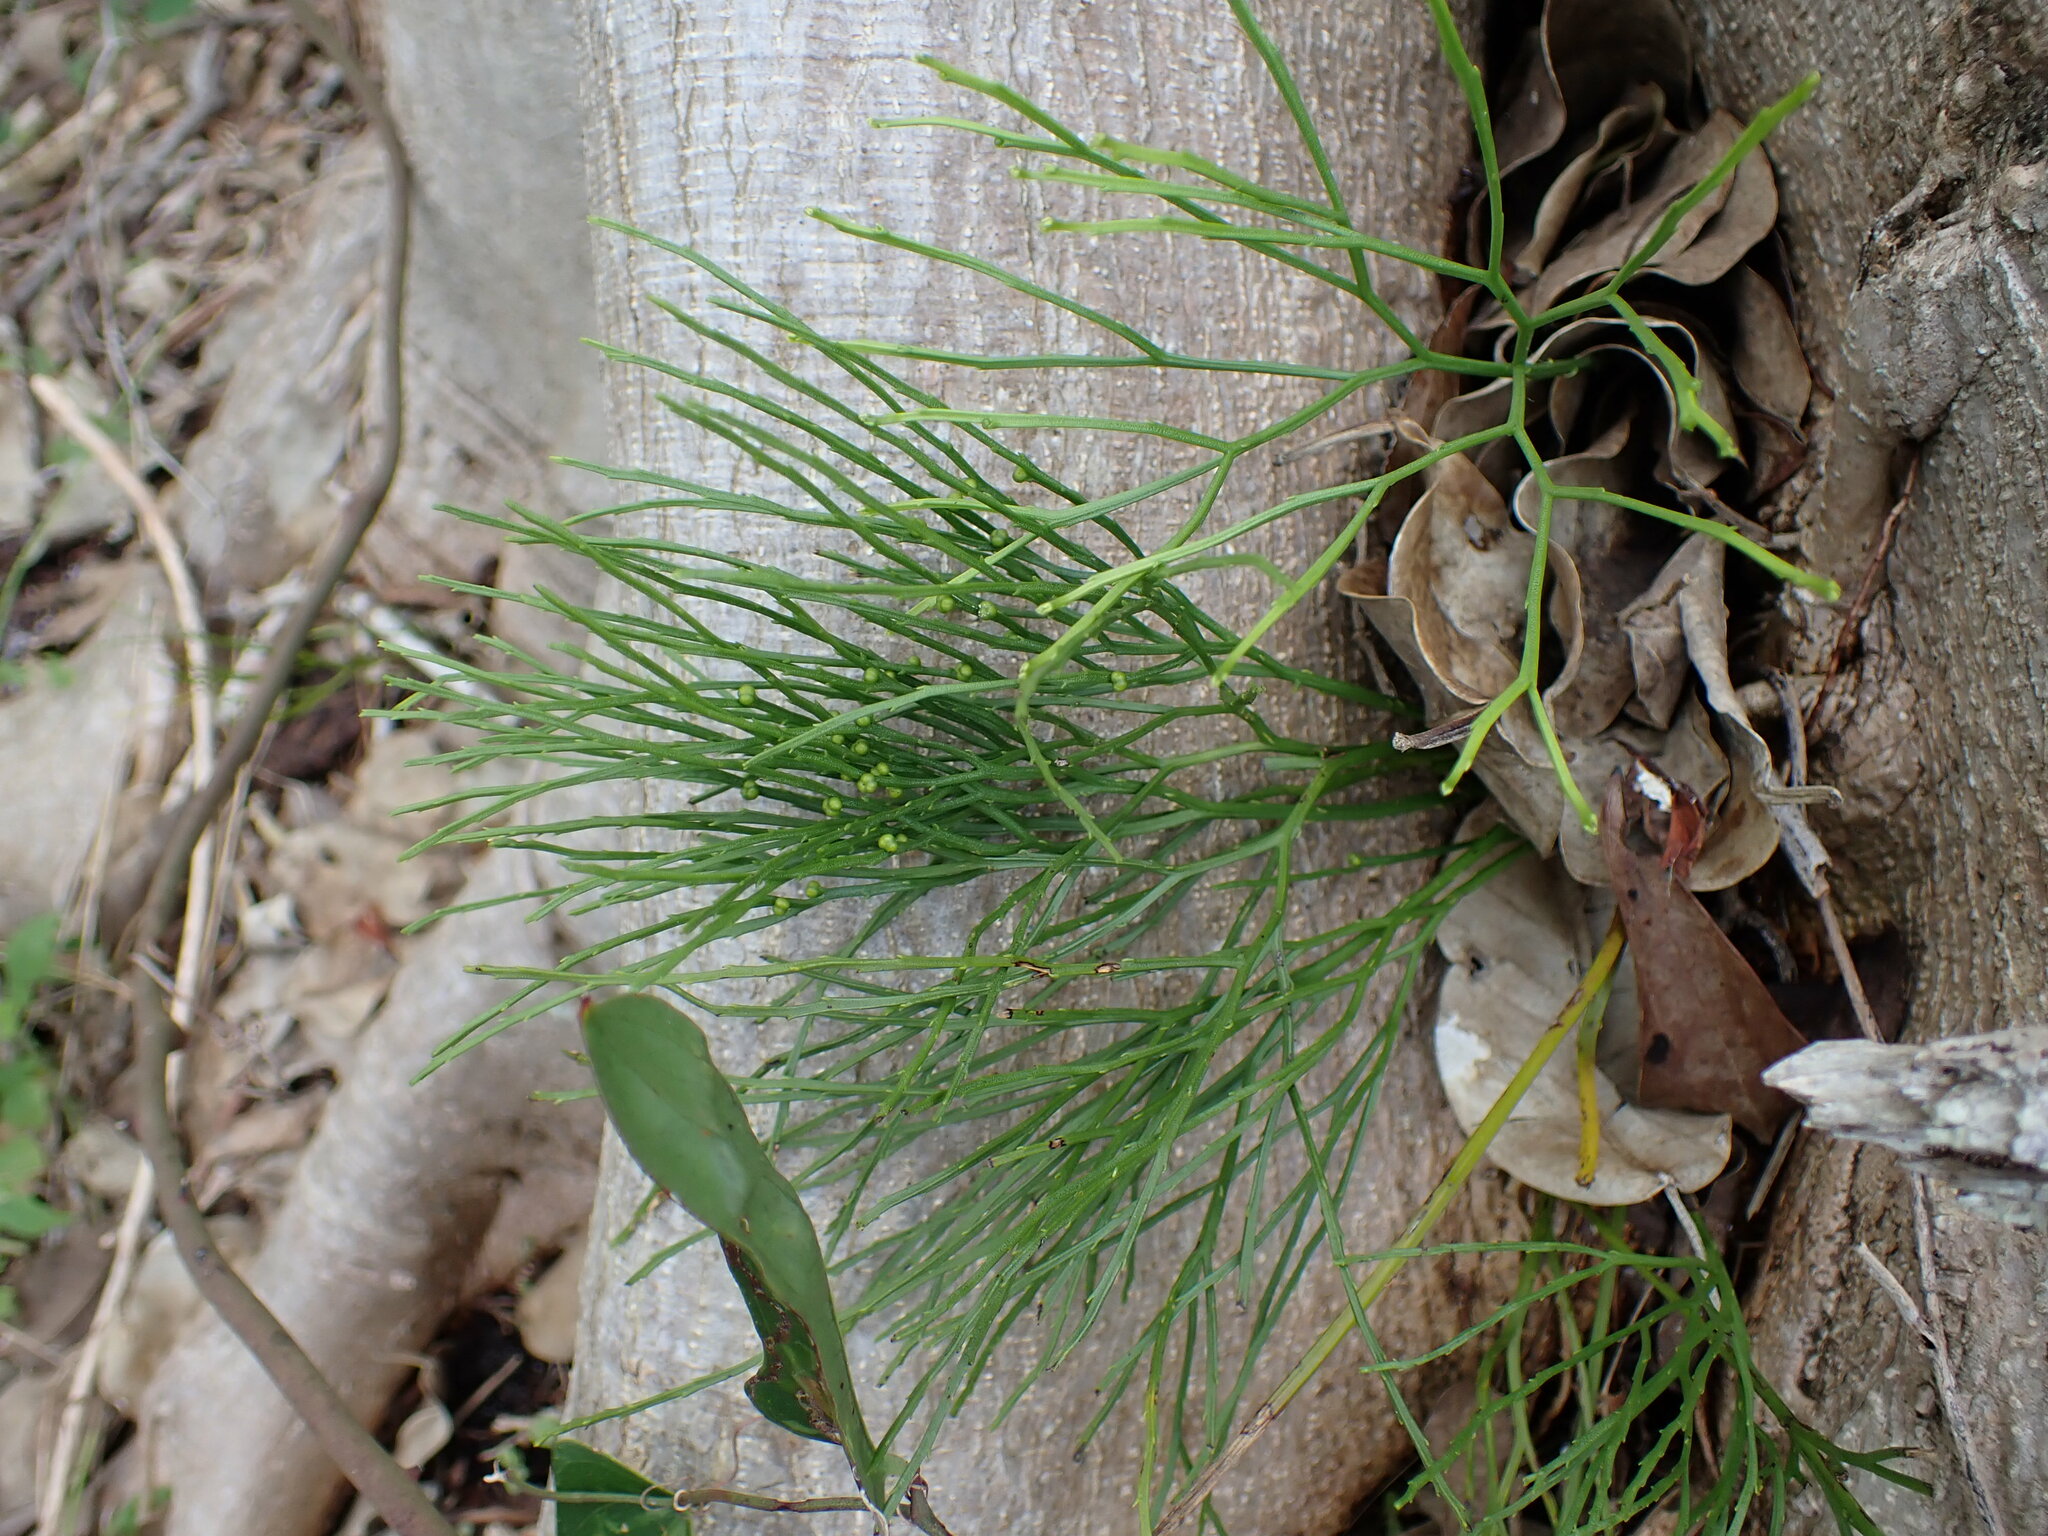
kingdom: Plantae
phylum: Tracheophyta
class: Polypodiopsida
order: Psilotales
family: Psilotaceae
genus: Psilotum
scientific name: Psilotum nudum
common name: Skeleton fork fern
